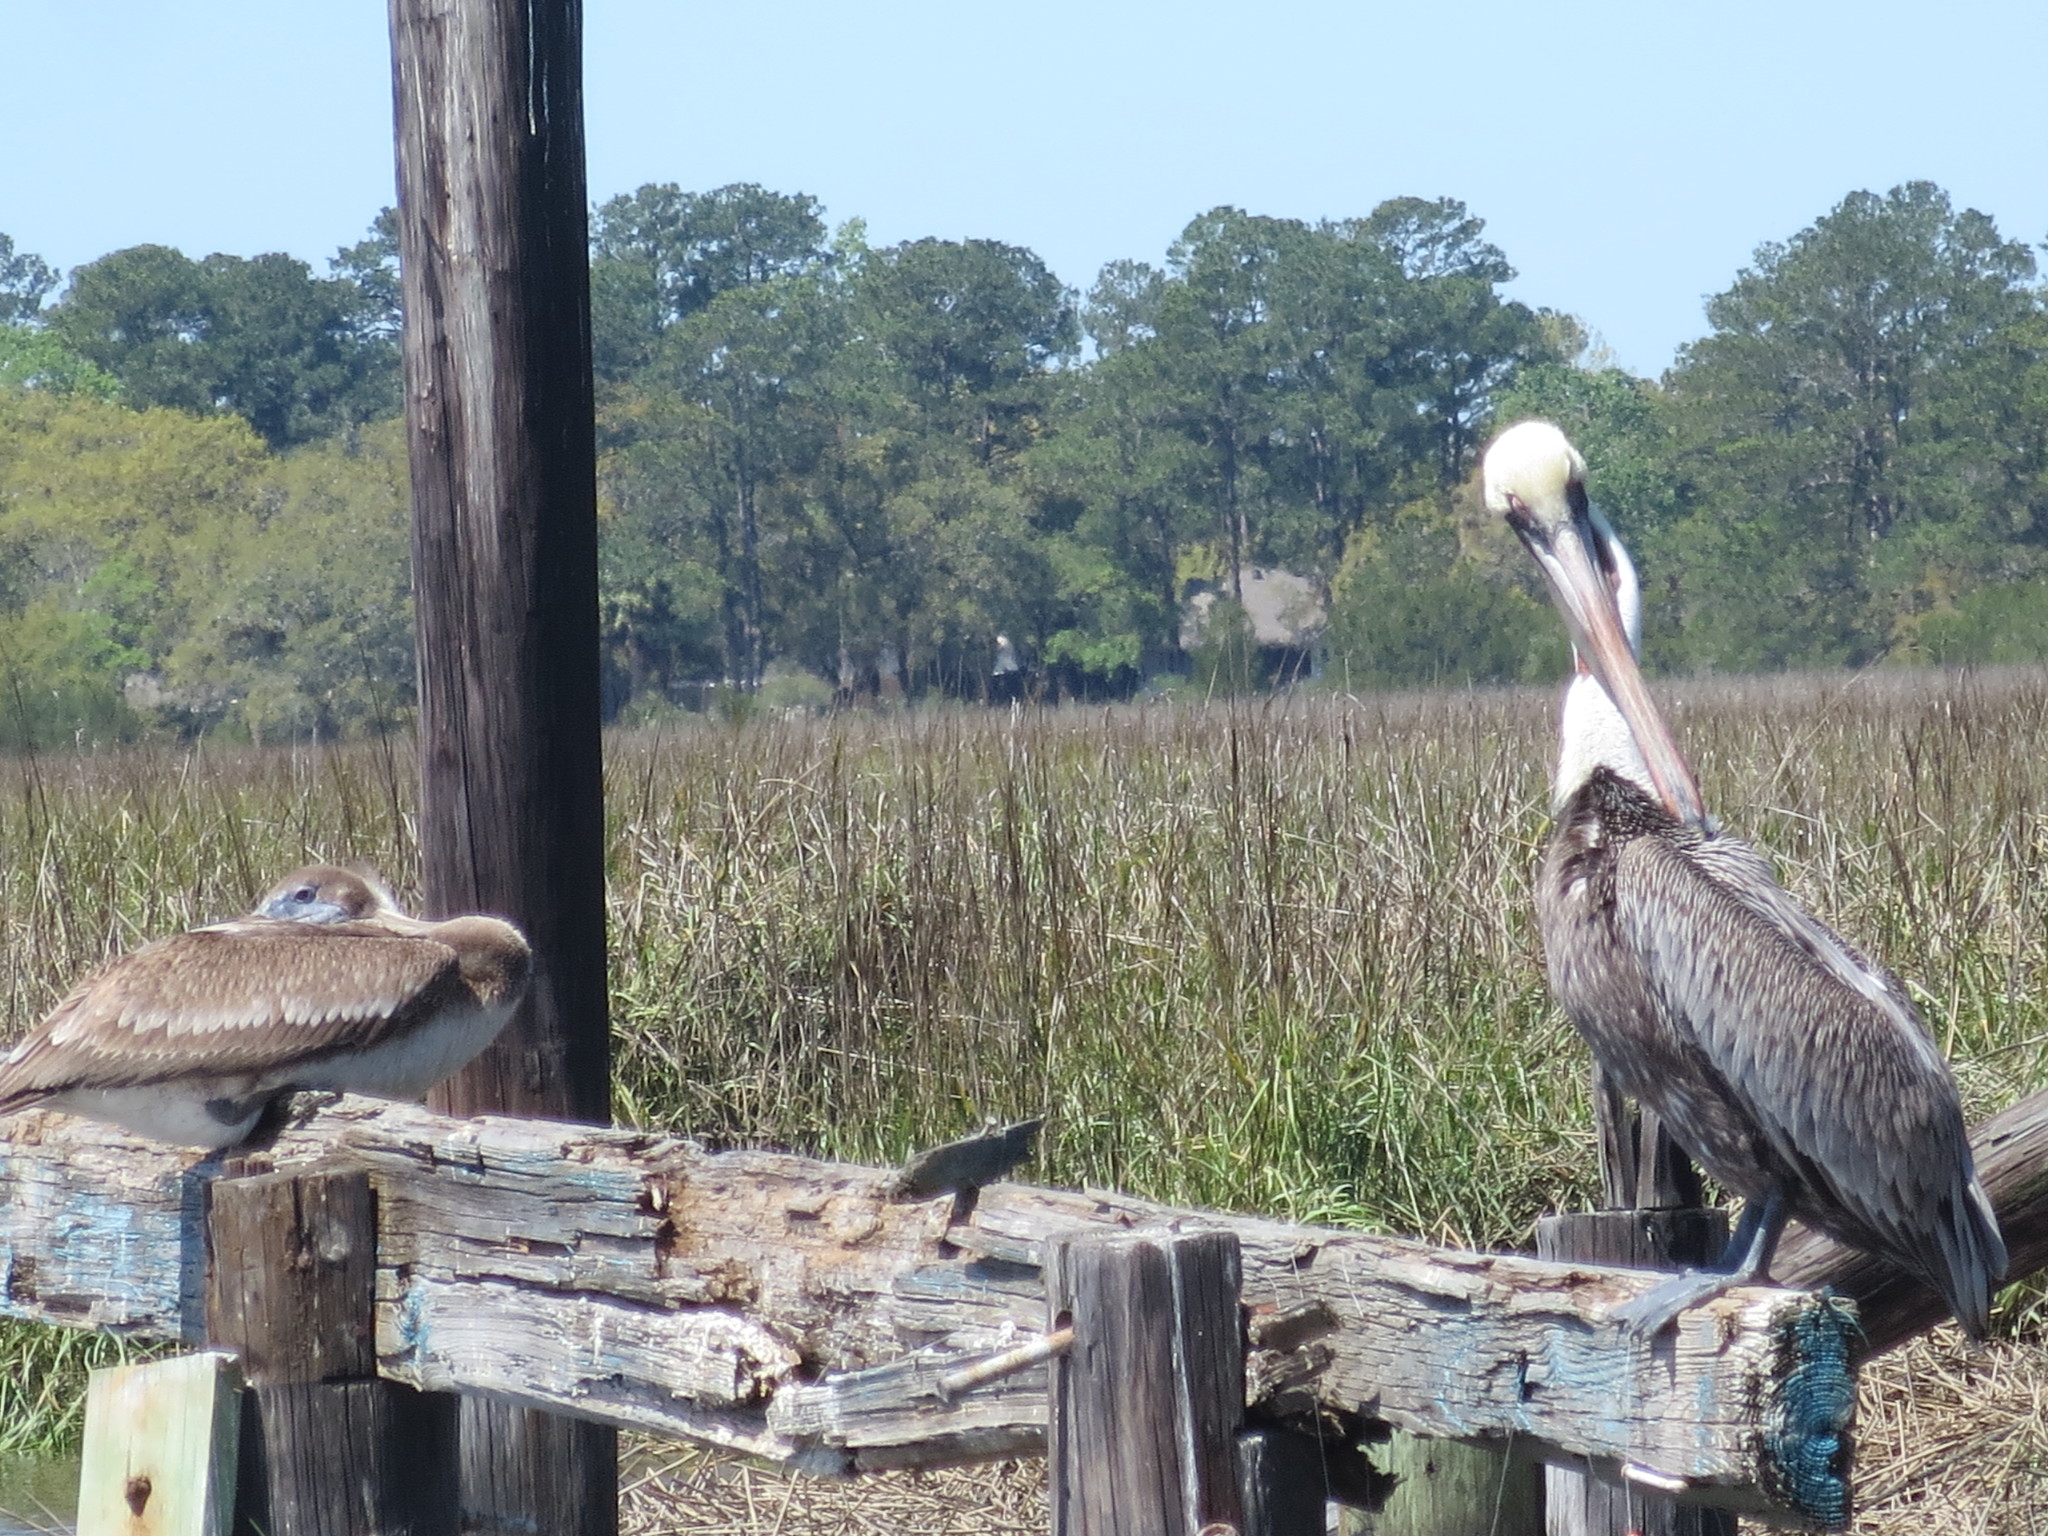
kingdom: Animalia
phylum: Chordata
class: Aves
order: Pelecaniformes
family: Pelecanidae
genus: Pelecanus
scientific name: Pelecanus occidentalis
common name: Brown pelican
